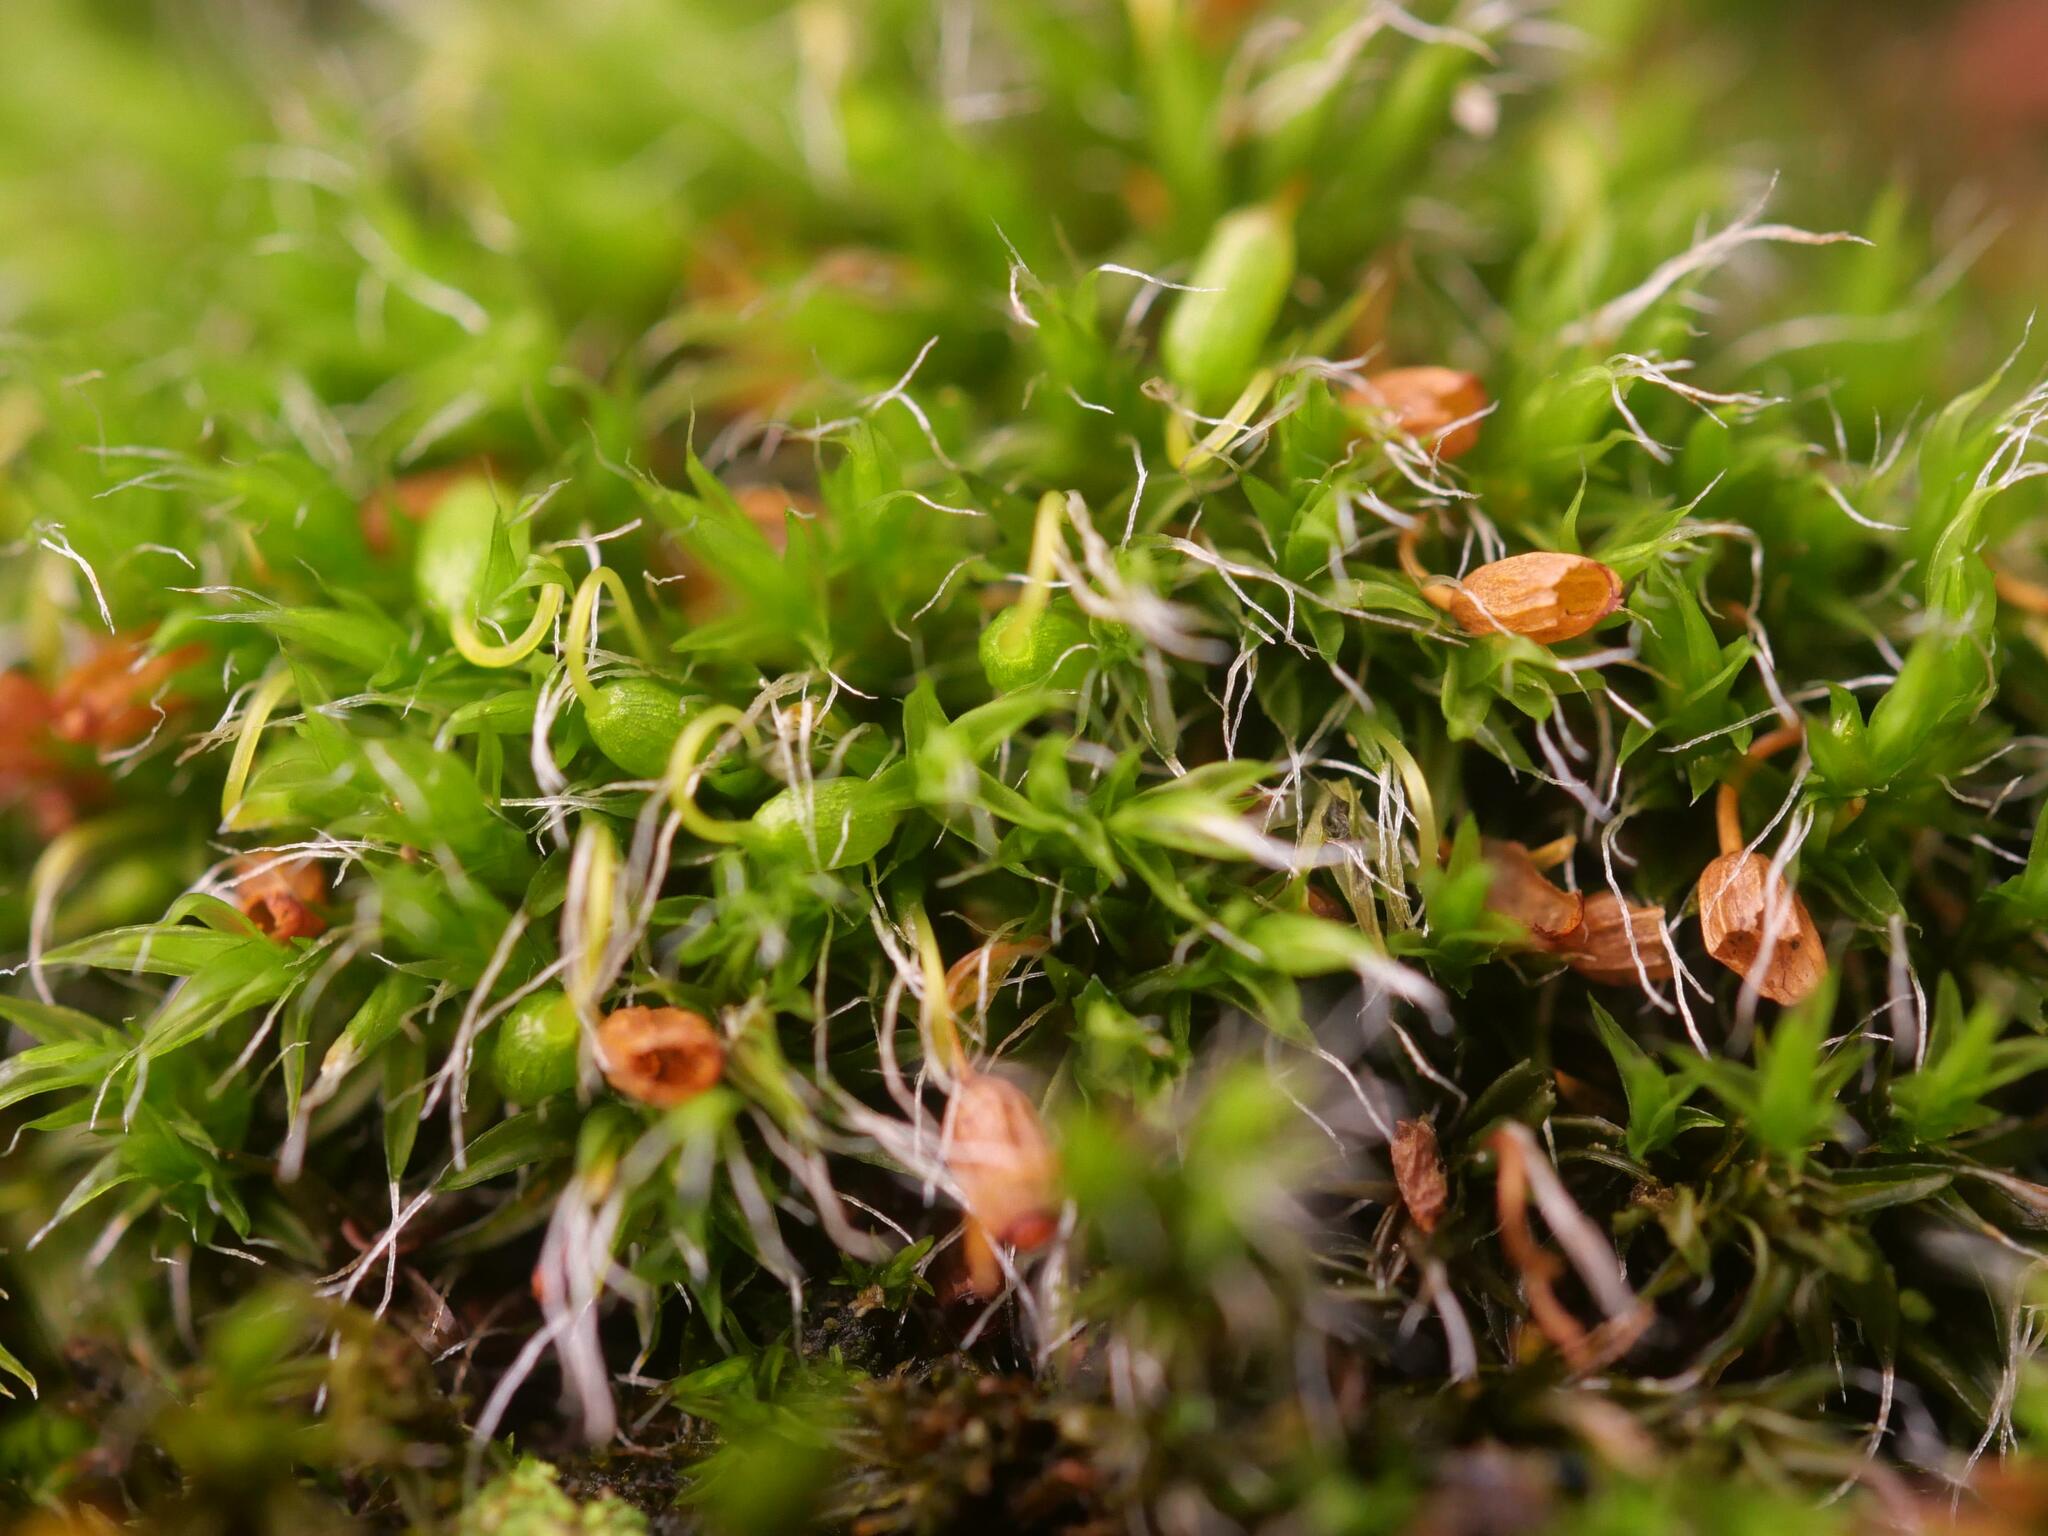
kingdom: Plantae
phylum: Bryophyta
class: Bryopsida
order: Grimmiales
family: Grimmiaceae
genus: Grimmia
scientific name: Grimmia pulvinata
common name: Grey-cushioned grimmia
